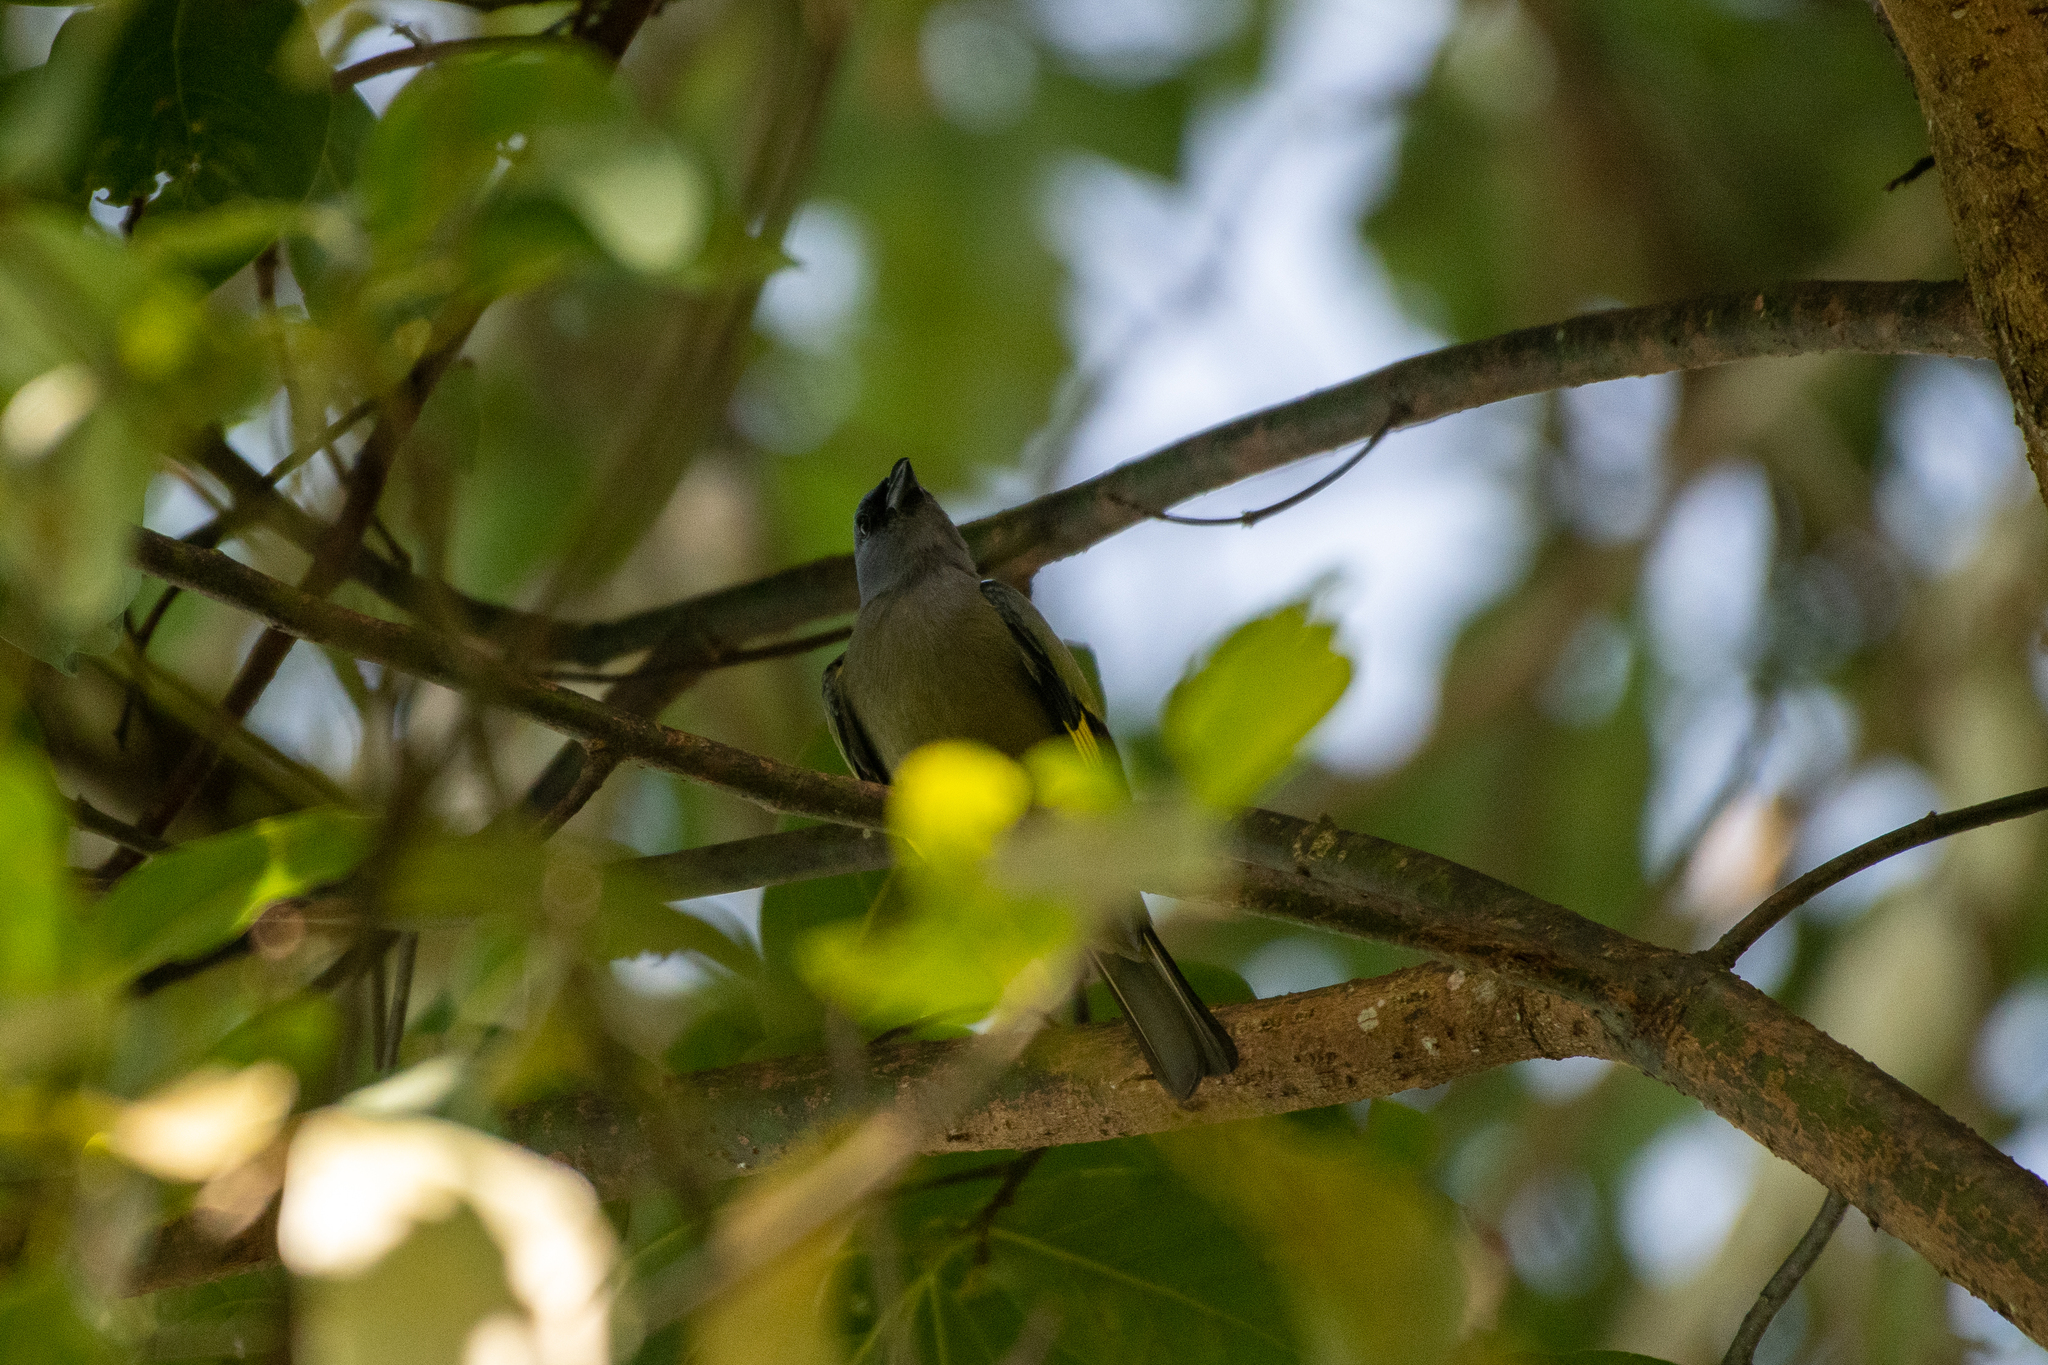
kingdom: Animalia
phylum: Chordata
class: Aves
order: Passeriformes
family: Thraupidae
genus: Thraupis
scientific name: Thraupis abbas
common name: Yellow-winged tanager
